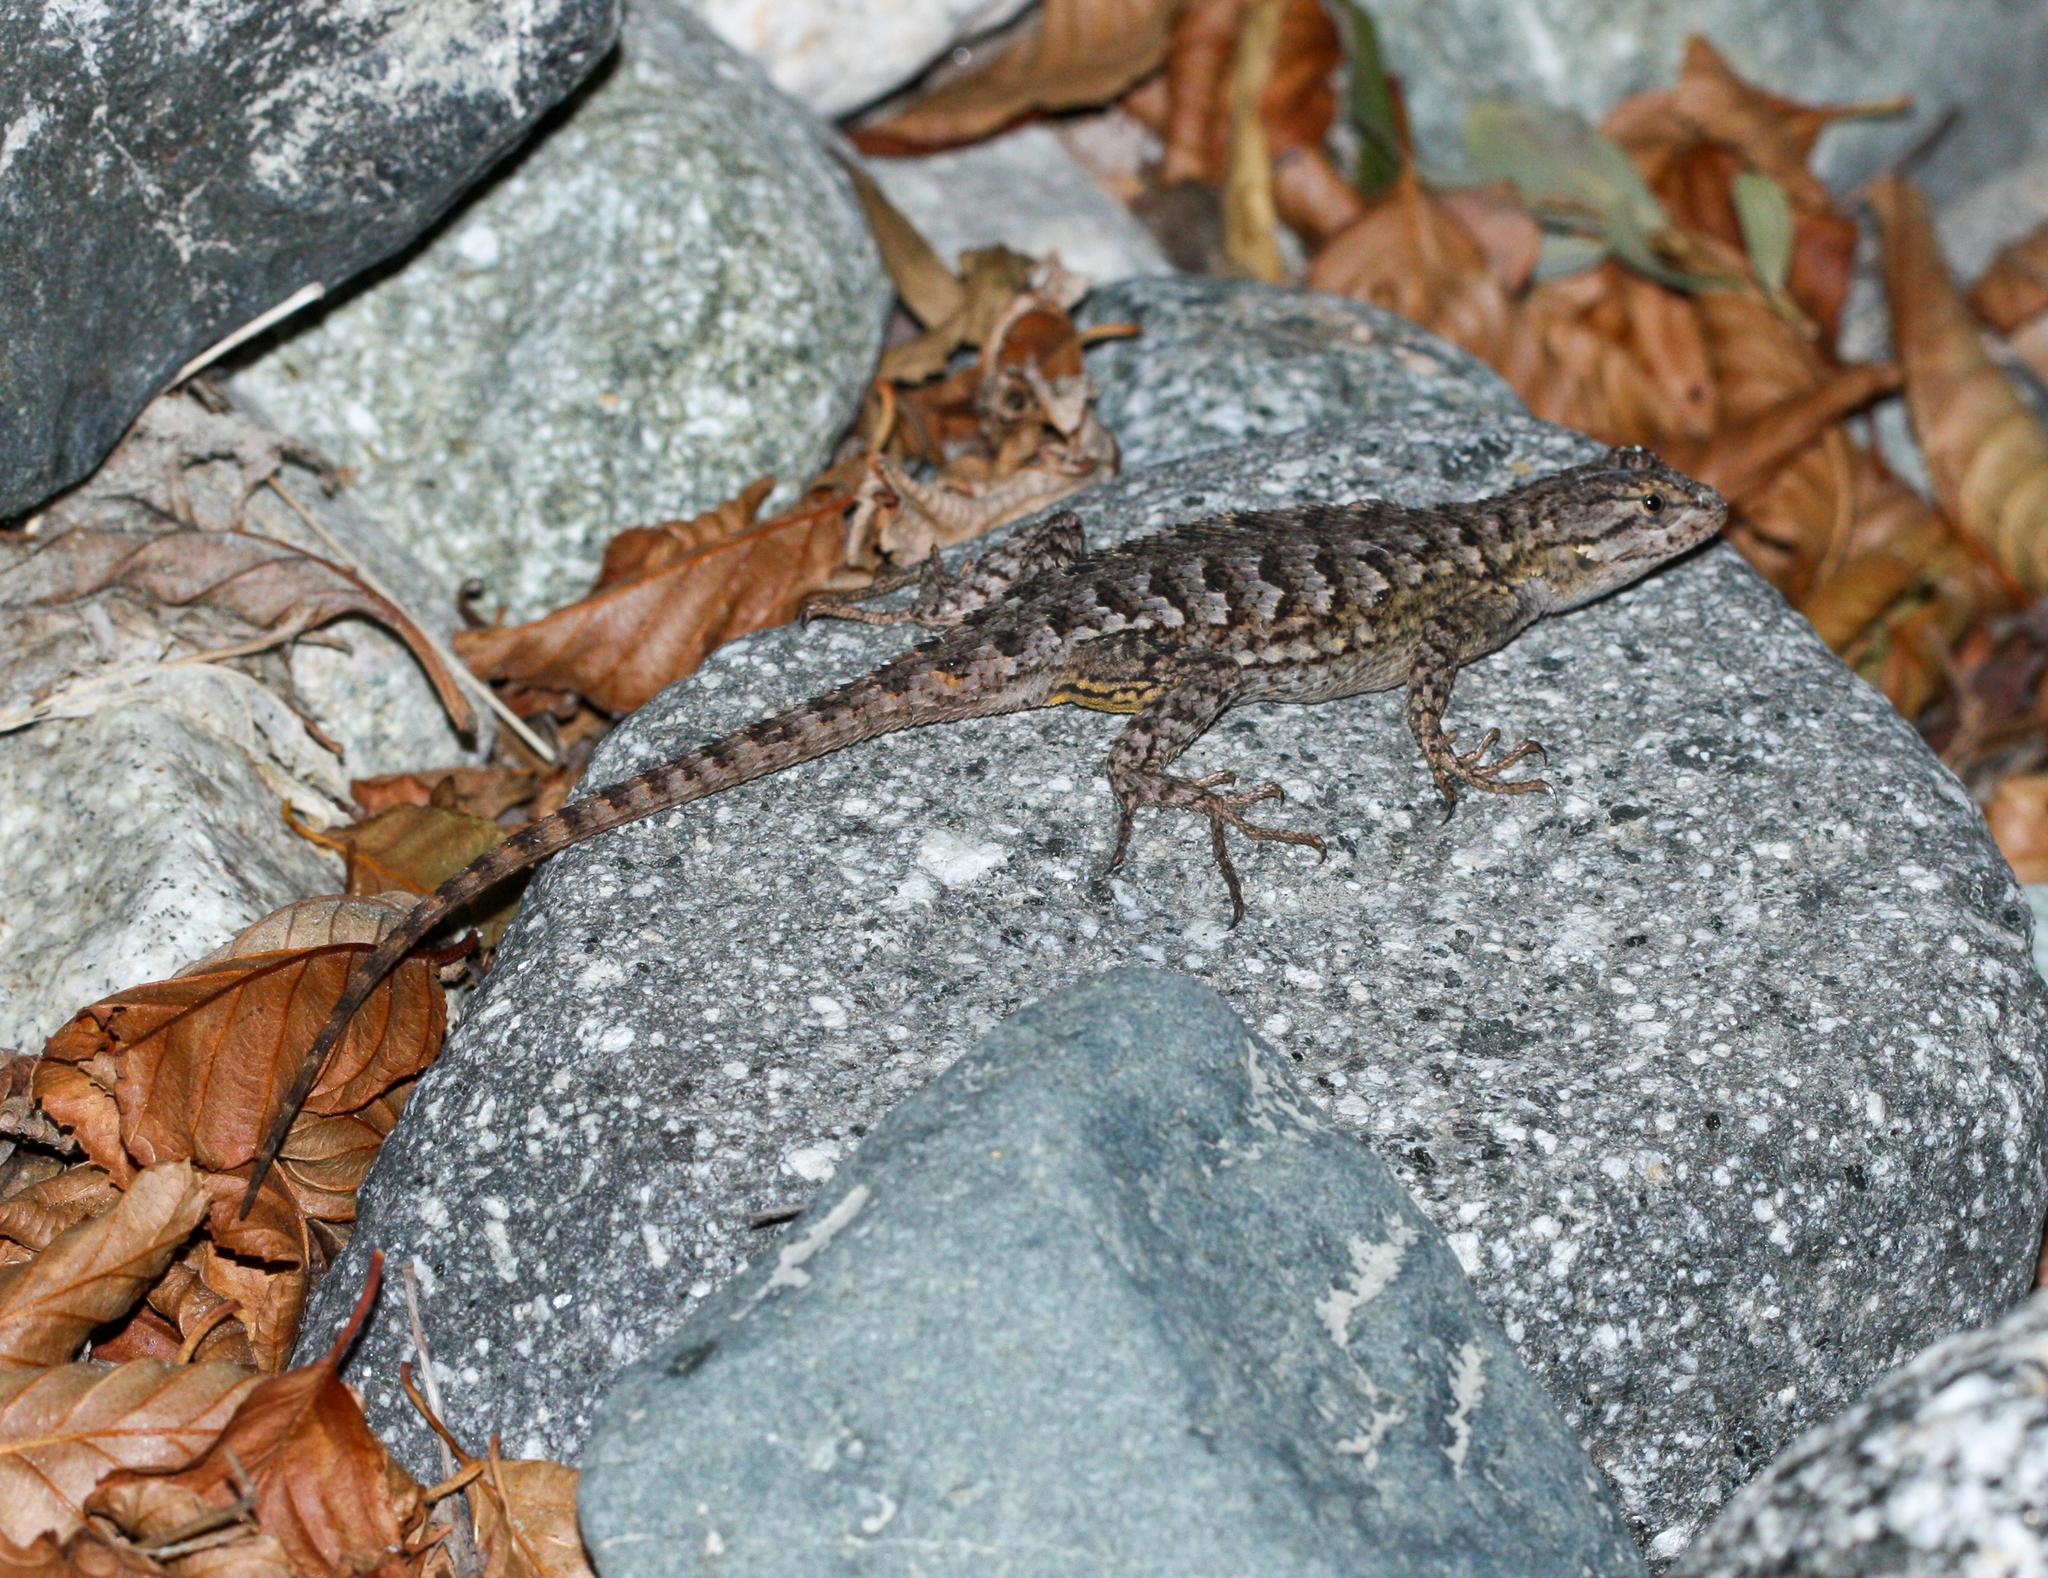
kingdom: Animalia
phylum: Chordata
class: Squamata
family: Phrynosomatidae
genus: Sceloporus
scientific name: Sceloporus occidentalis
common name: Western fence lizard
